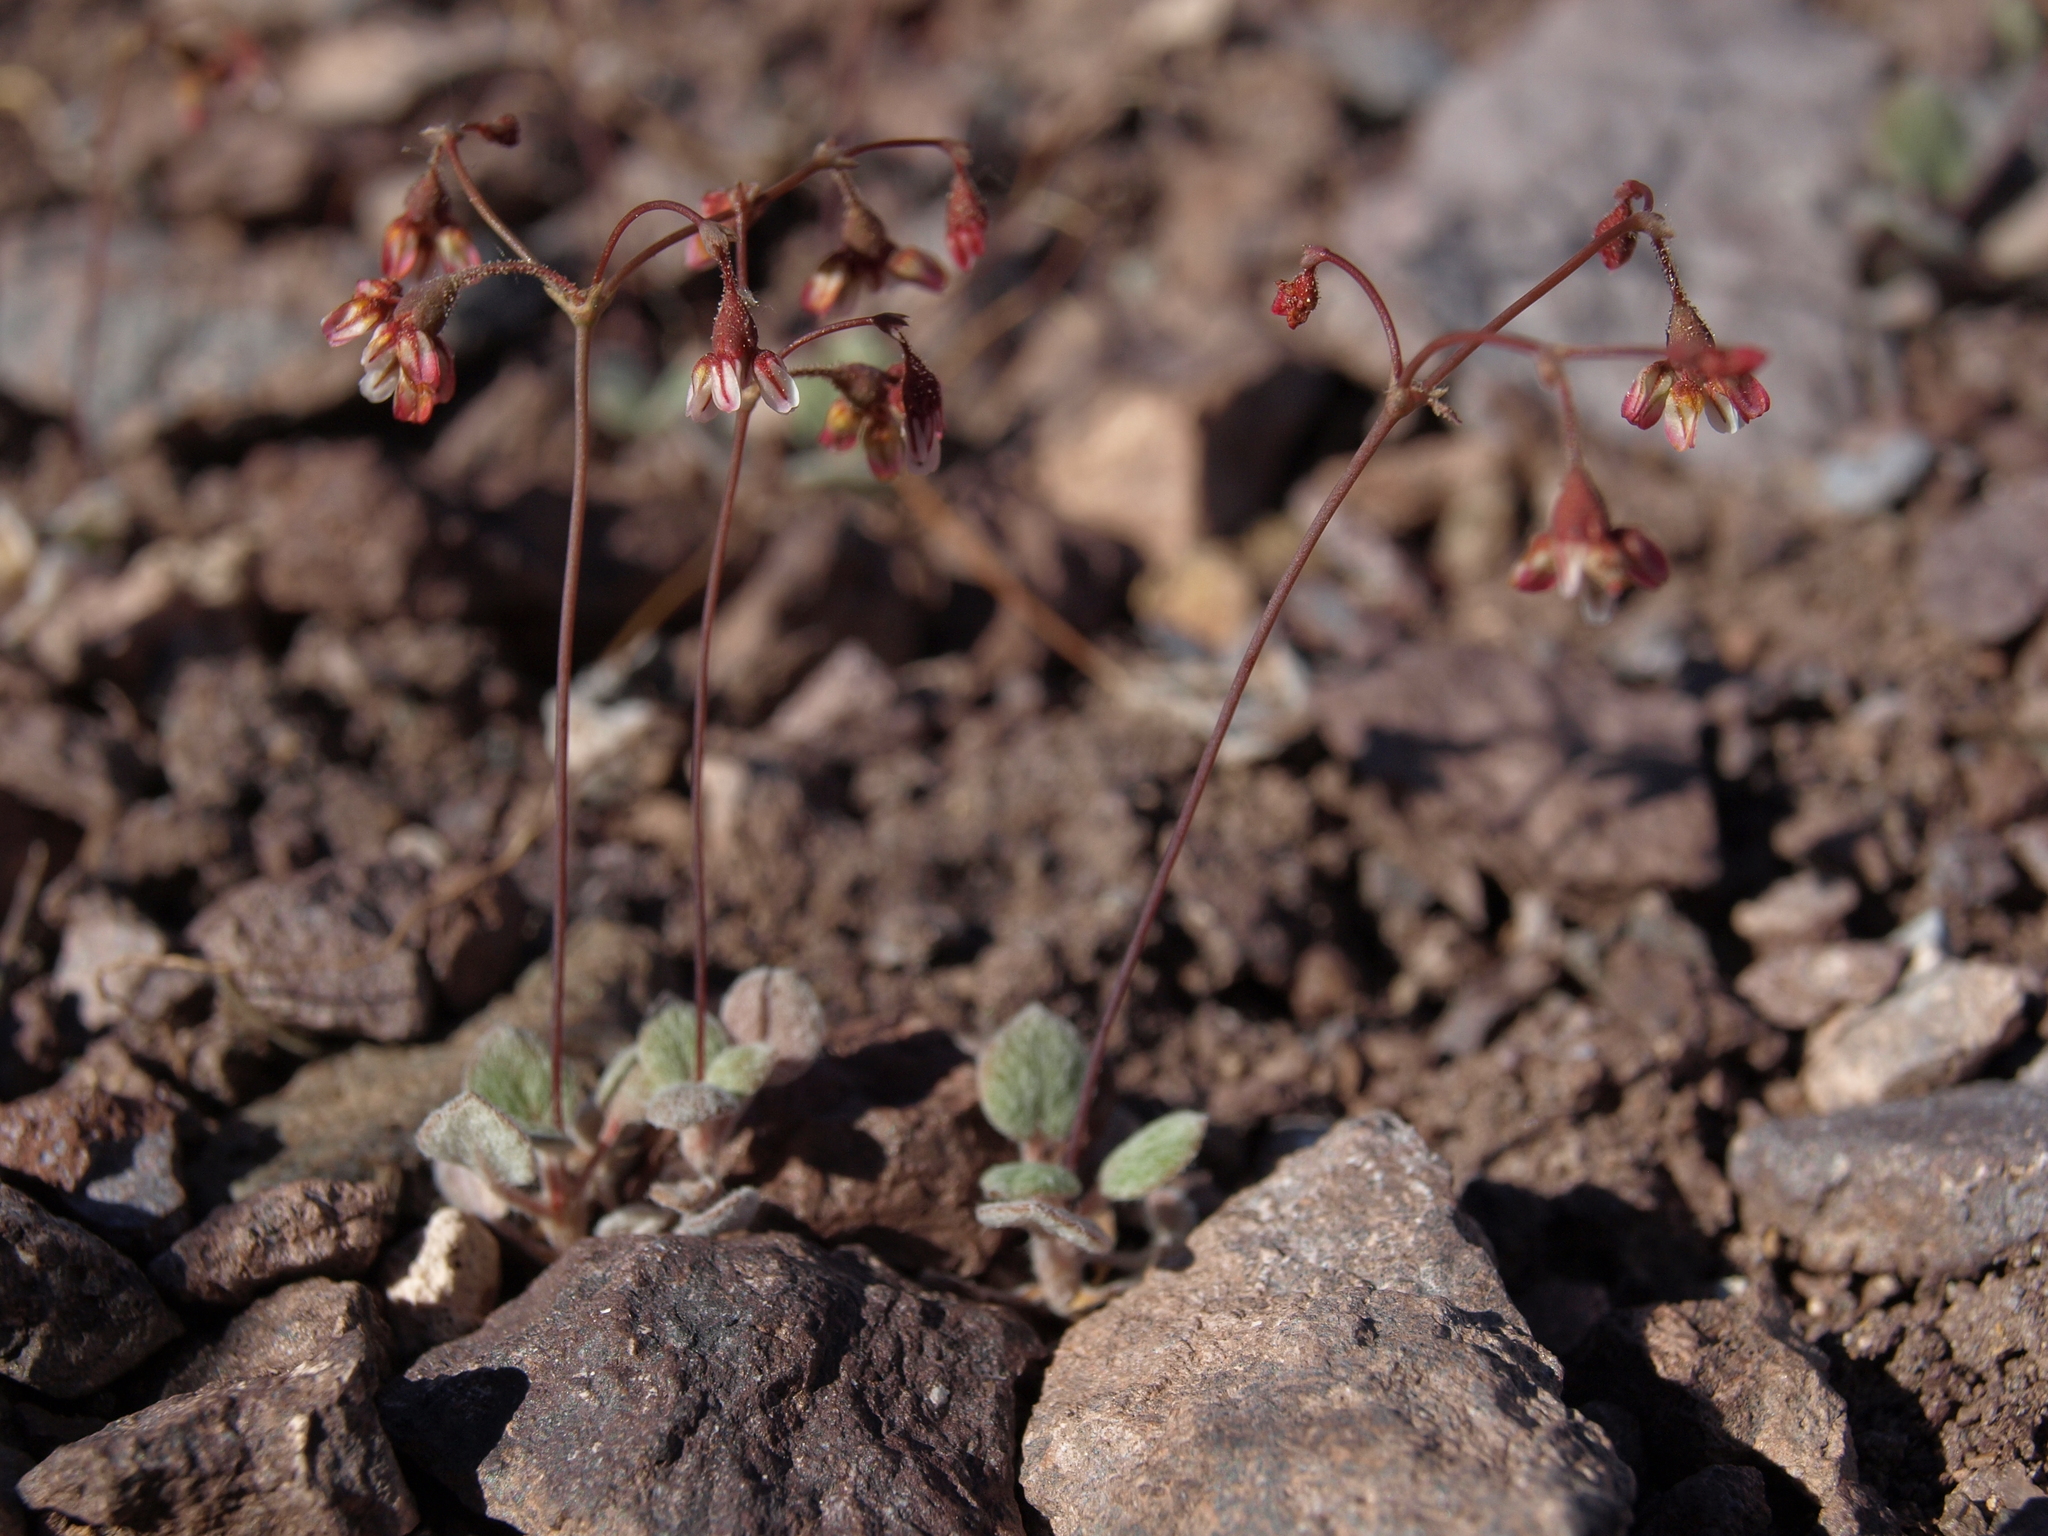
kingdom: Plantae
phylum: Tracheophyta
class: Magnoliopsida
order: Caryophyllales
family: Polygonaceae
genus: Eriogonum
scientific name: Eriogonum nutans
